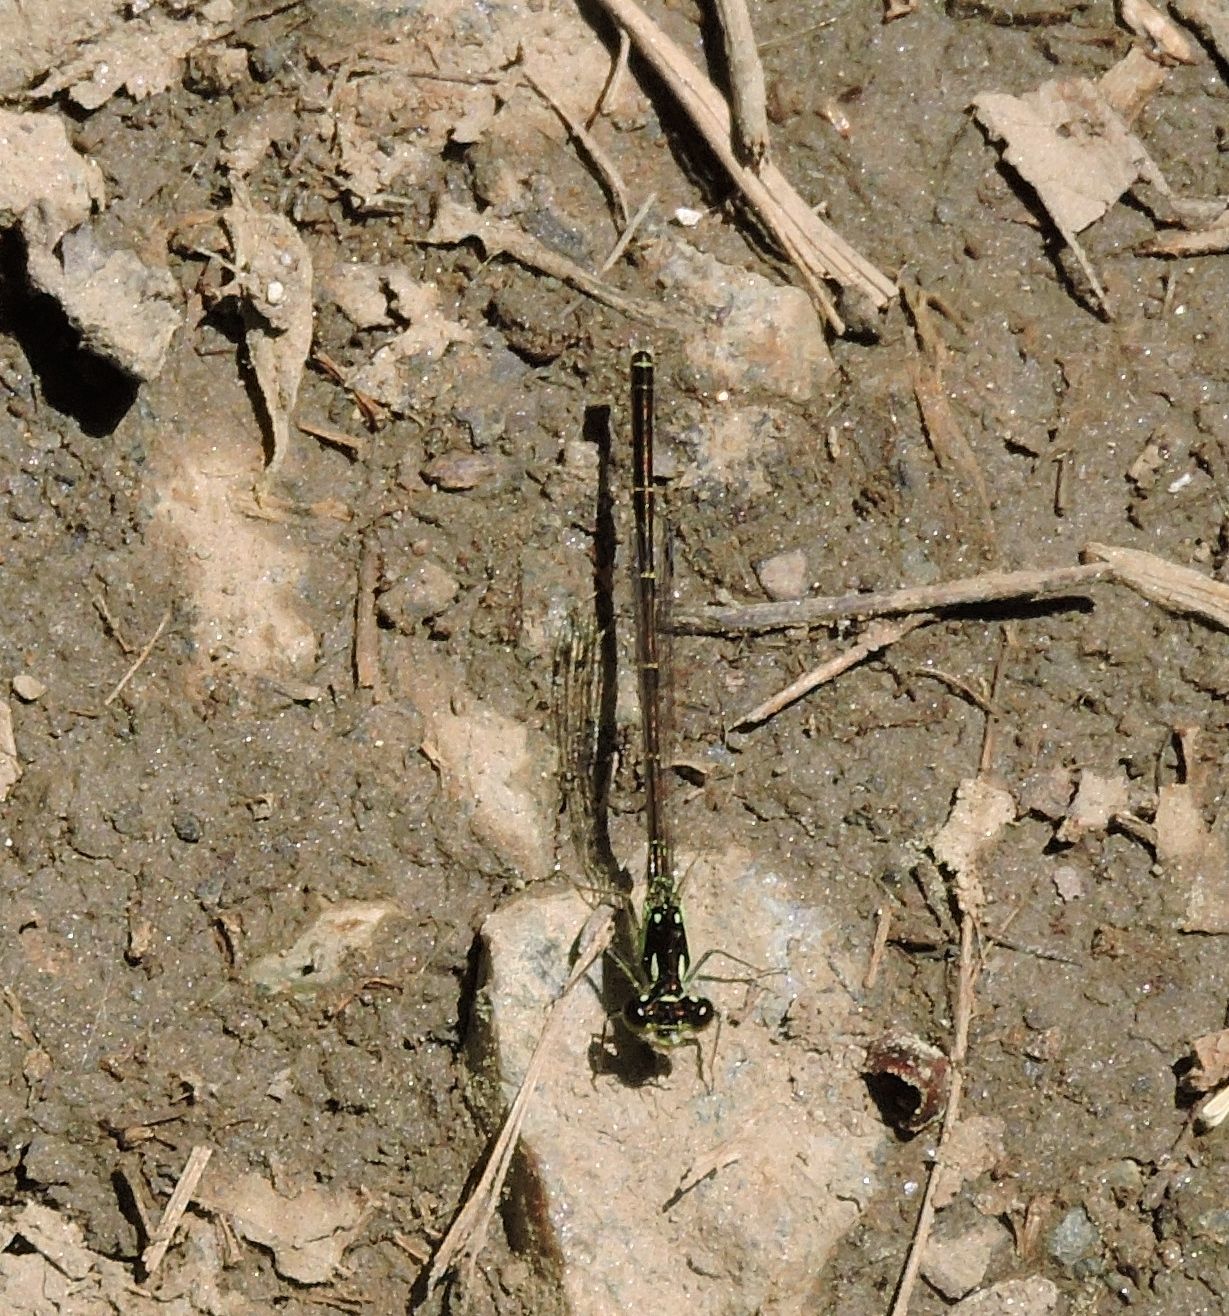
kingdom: Animalia
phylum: Arthropoda
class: Insecta
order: Odonata
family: Coenagrionidae
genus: Ischnura
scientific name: Ischnura posita
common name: Fragile forktail
